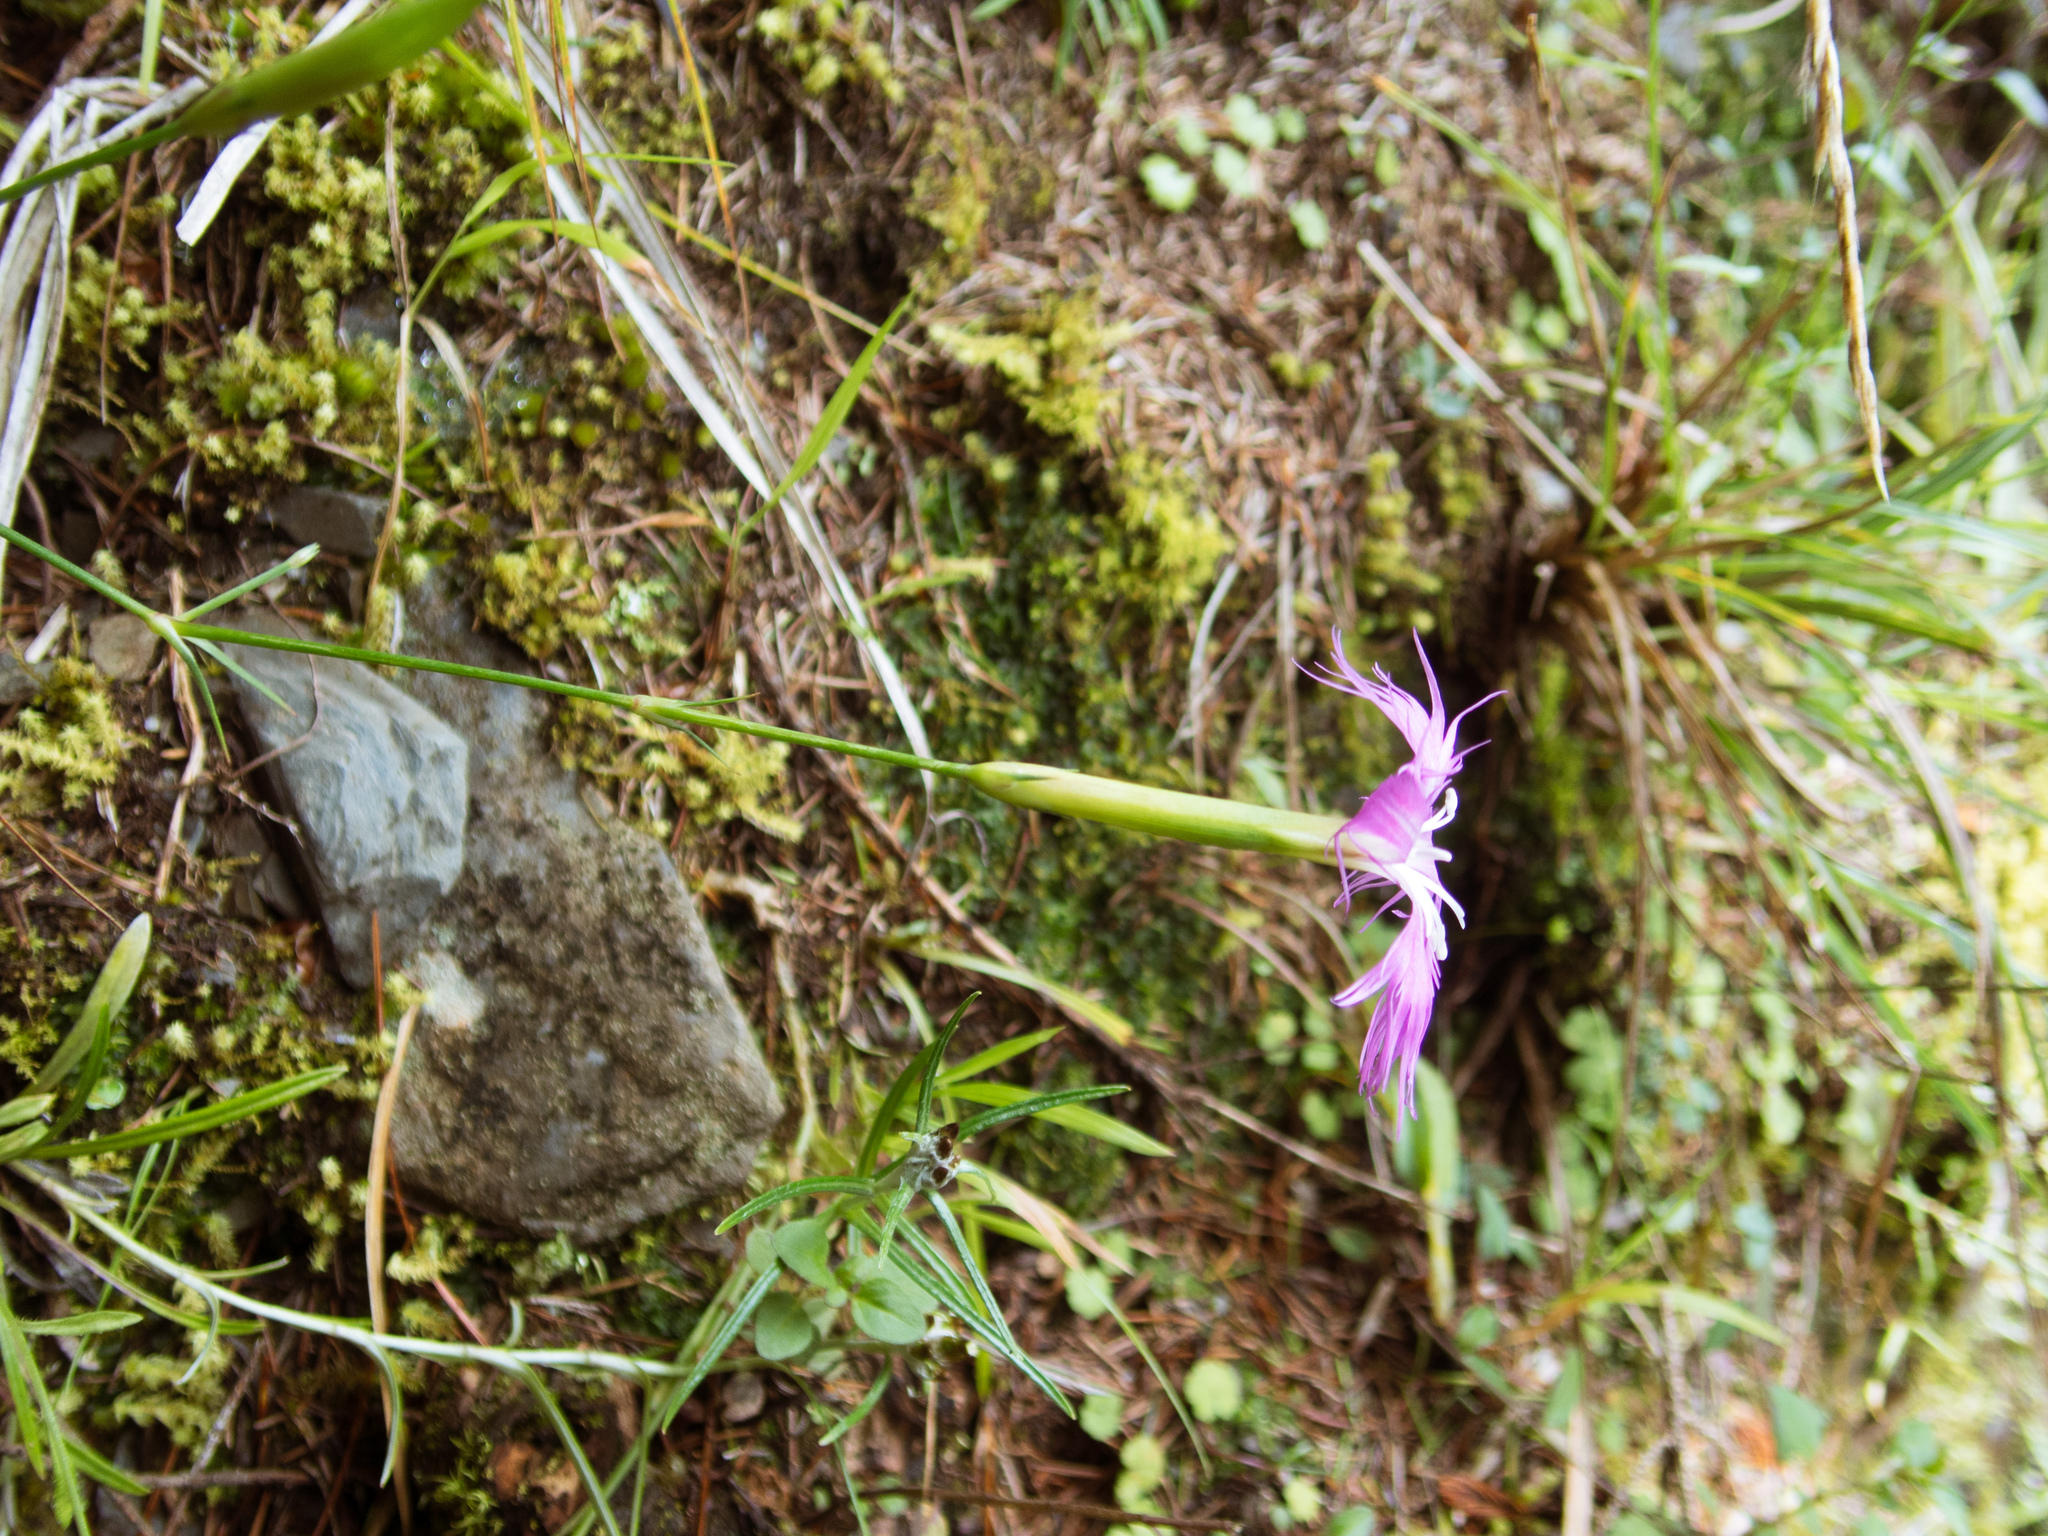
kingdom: Plantae
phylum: Tracheophyta
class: Magnoliopsida
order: Caryophyllales
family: Caryophyllaceae
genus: Dianthus
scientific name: Dianthus pygmaeus
